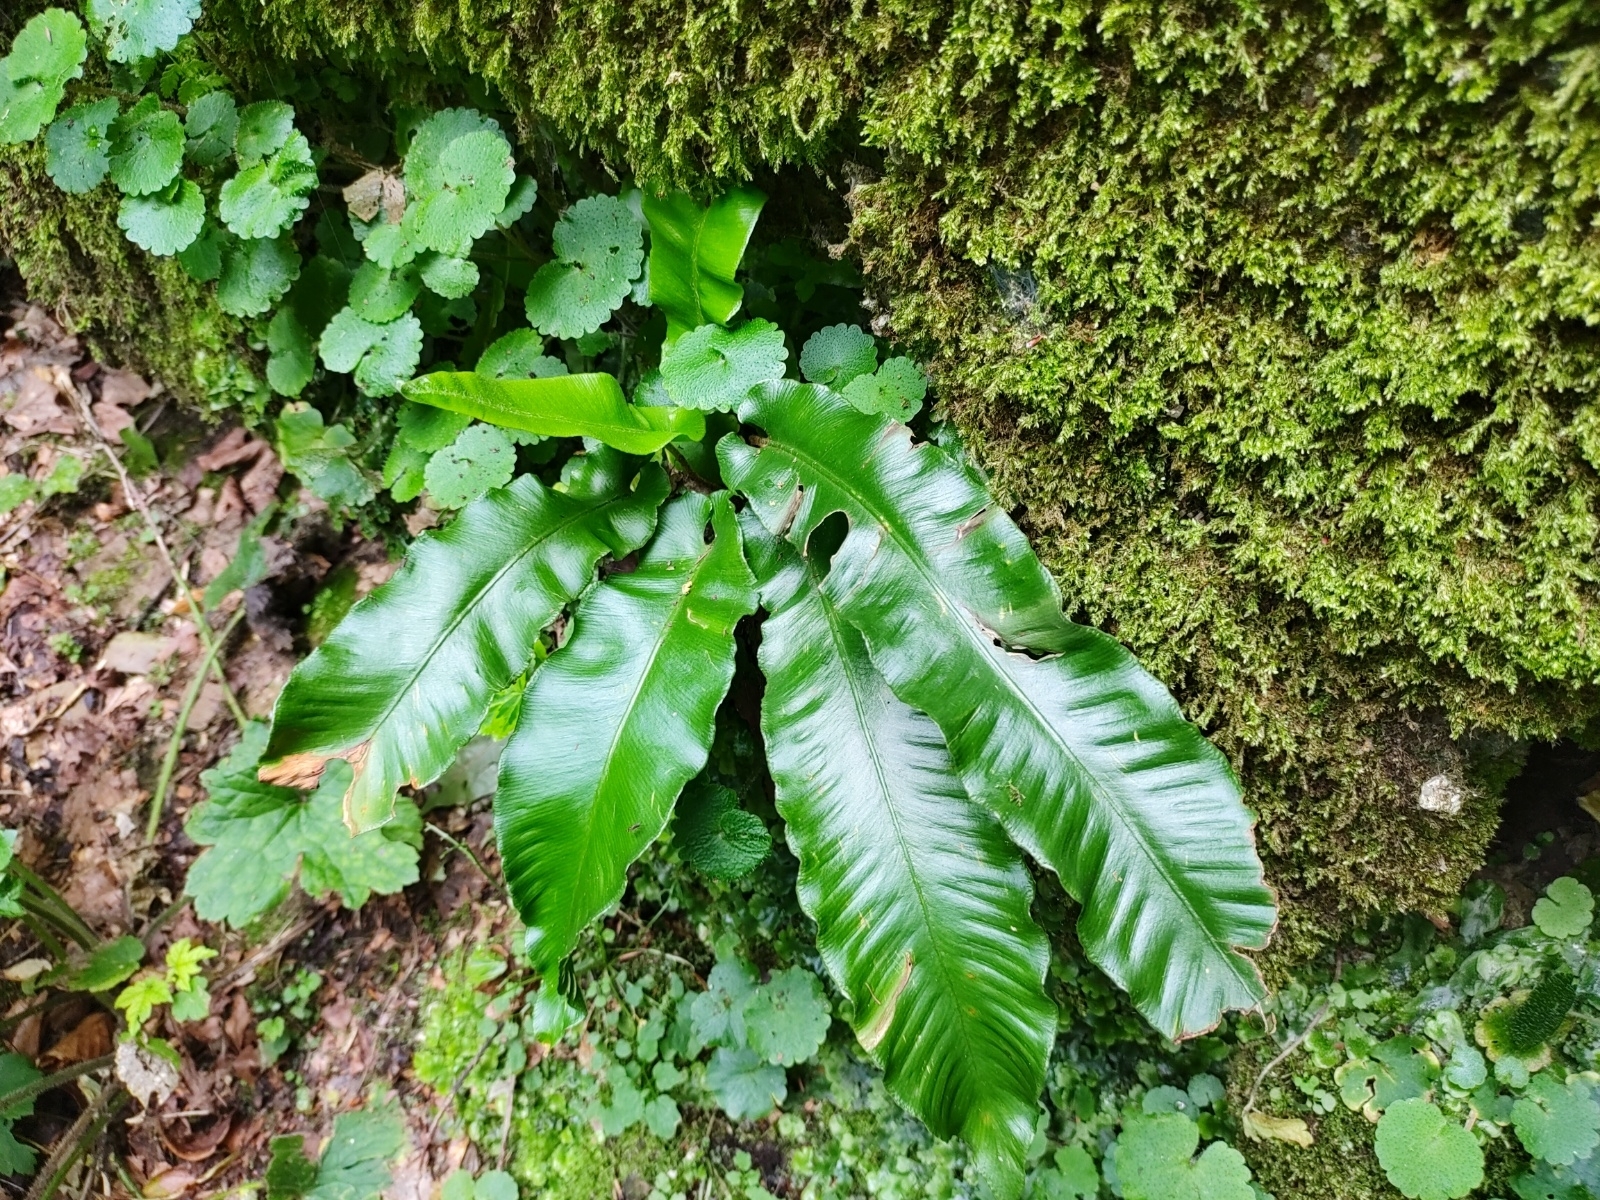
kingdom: Plantae
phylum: Tracheophyta
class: Polypodiopsida
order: Polypodiales
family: Aspleniaceae
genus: Asplenium
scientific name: Asplenium scolopendrium
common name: Hart's-tongue fern
